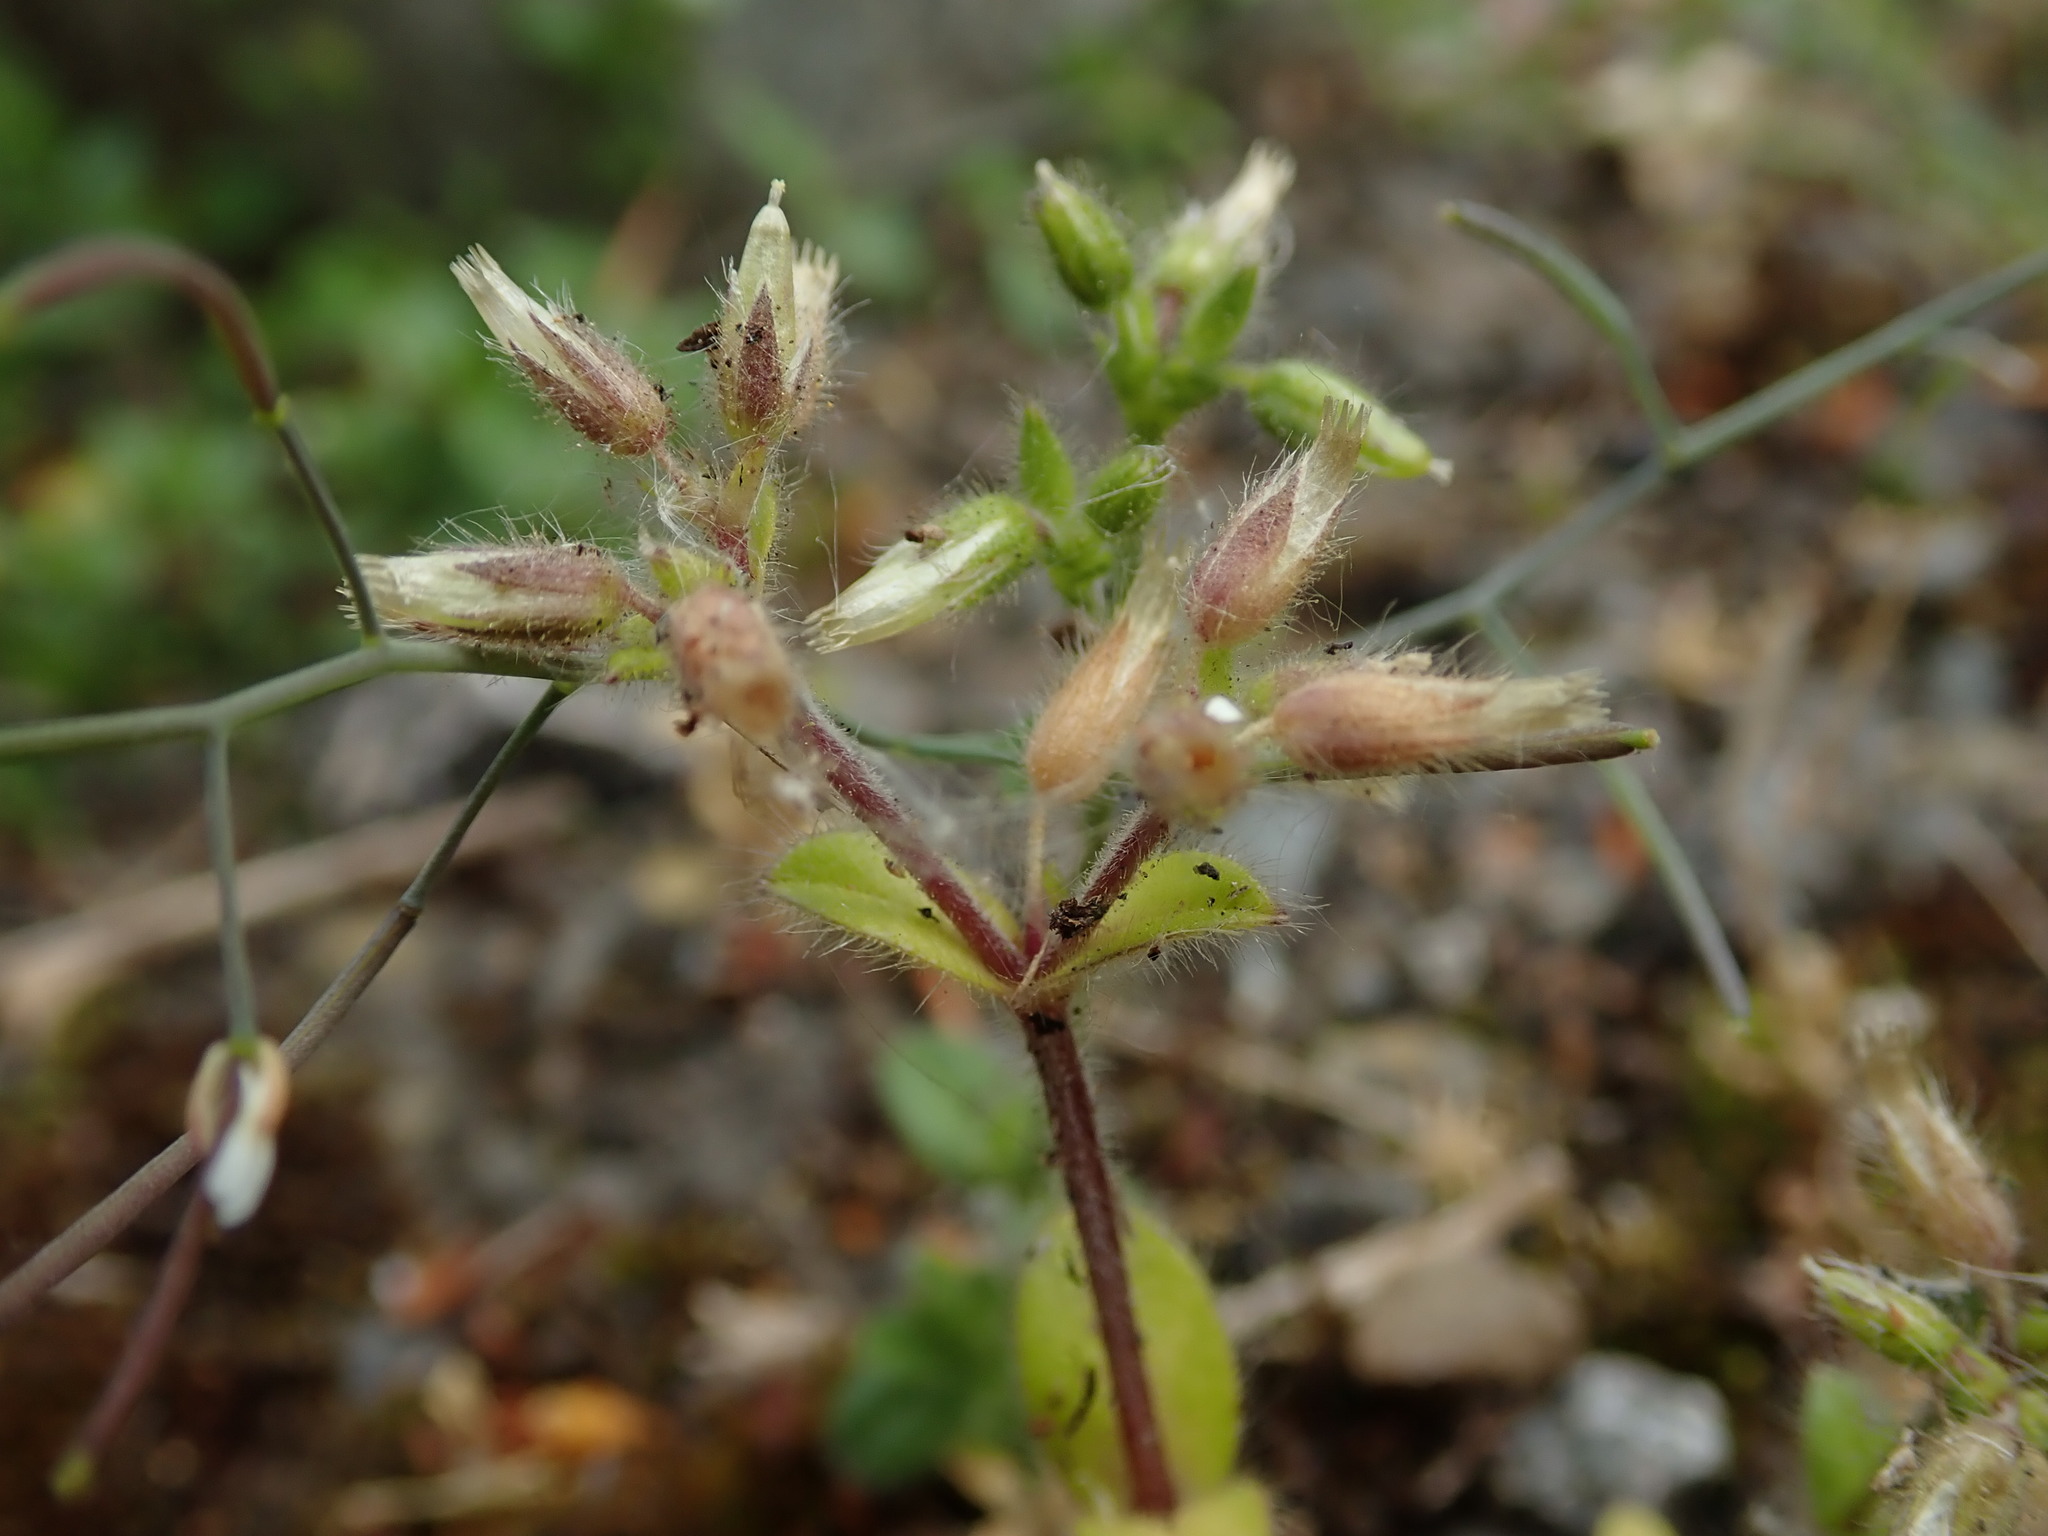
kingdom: Plantae
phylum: Tracheophyta
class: Magnoliopsida
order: Caryophyllales
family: Caryophyllaceae
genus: Cerastium
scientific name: Cerastium glomeratum
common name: Sticky chickweed
